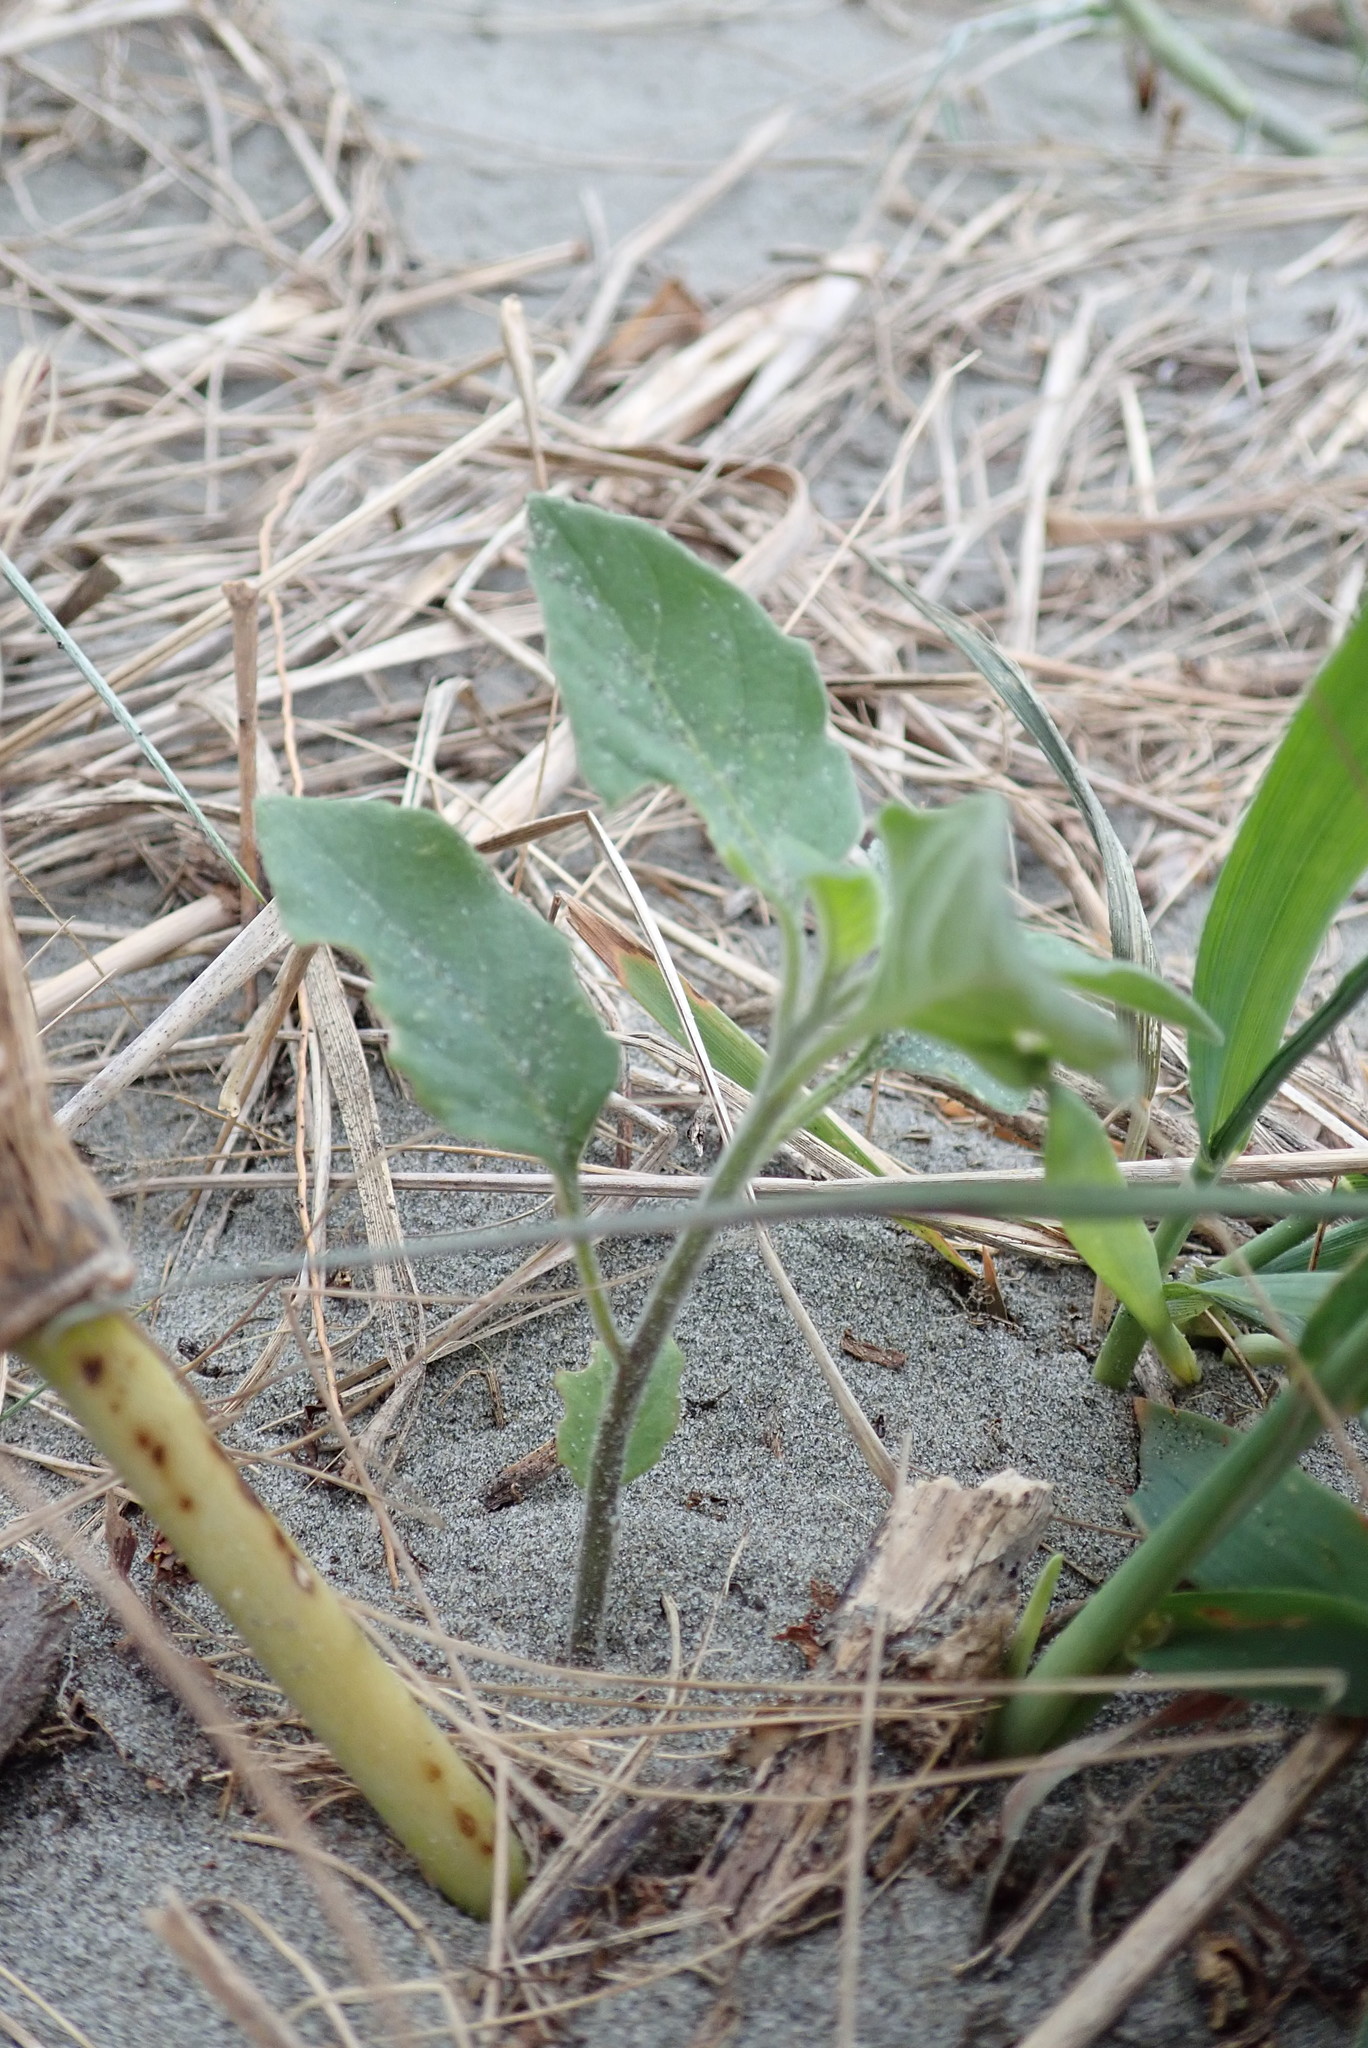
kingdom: Plantae
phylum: Tracheophyta
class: Magnoliopsida
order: Solanales
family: Solanaceae
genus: Solanum
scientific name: Solanum chenopodioides
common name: Tall nightshade
